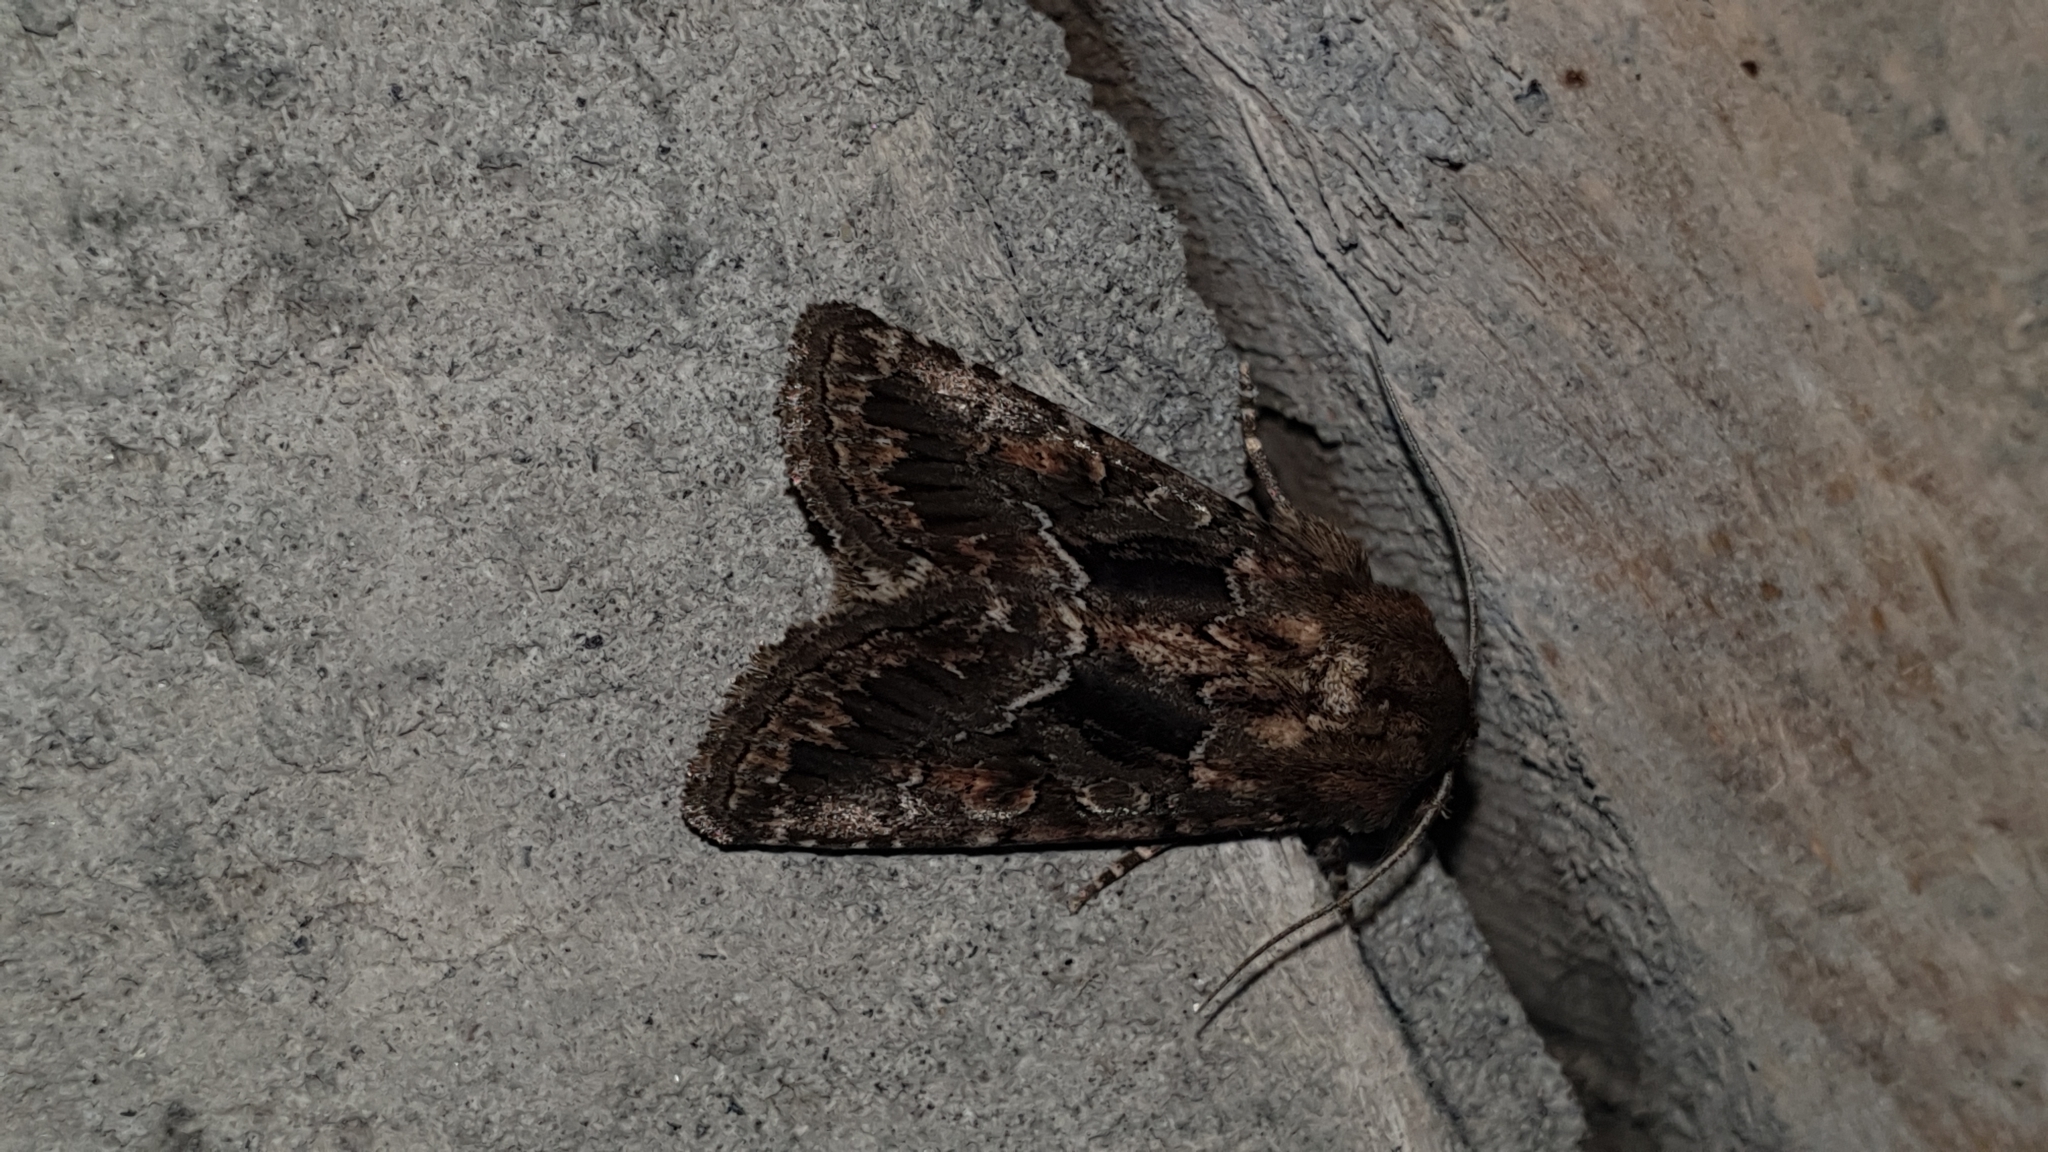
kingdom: Animalia
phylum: Arthropoda
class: Insecta
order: Lepidoptera
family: Noctuidae
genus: Thalpophila
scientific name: Thalpophila matura
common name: Straw underwing
